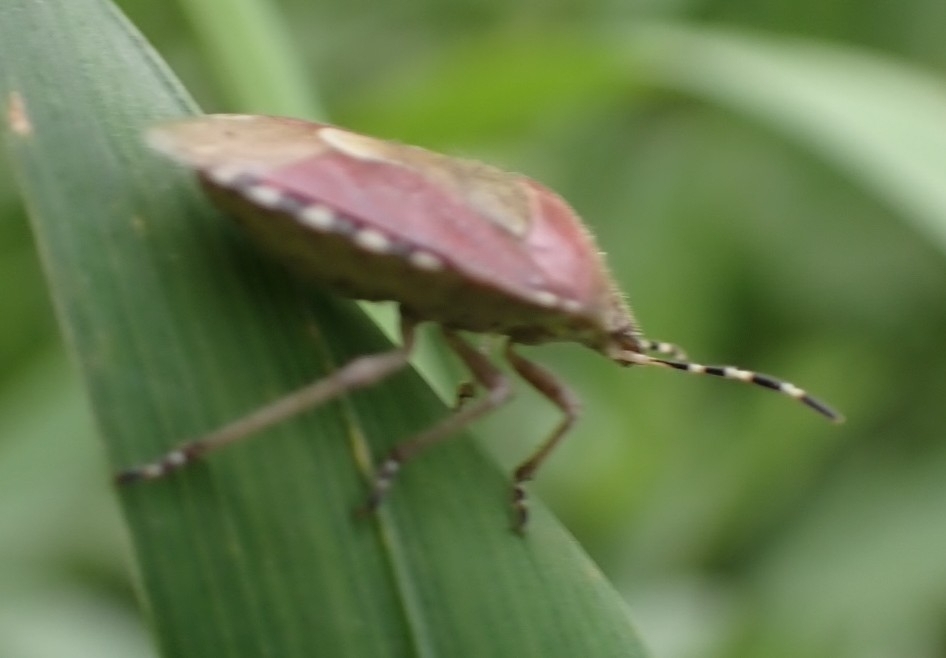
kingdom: Animalia
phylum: Arthropoda
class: Insecta
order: Hemiptera
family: Pentatomidae
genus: Dolycoris
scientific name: Dolycoris baccarum
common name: Sloe bug
